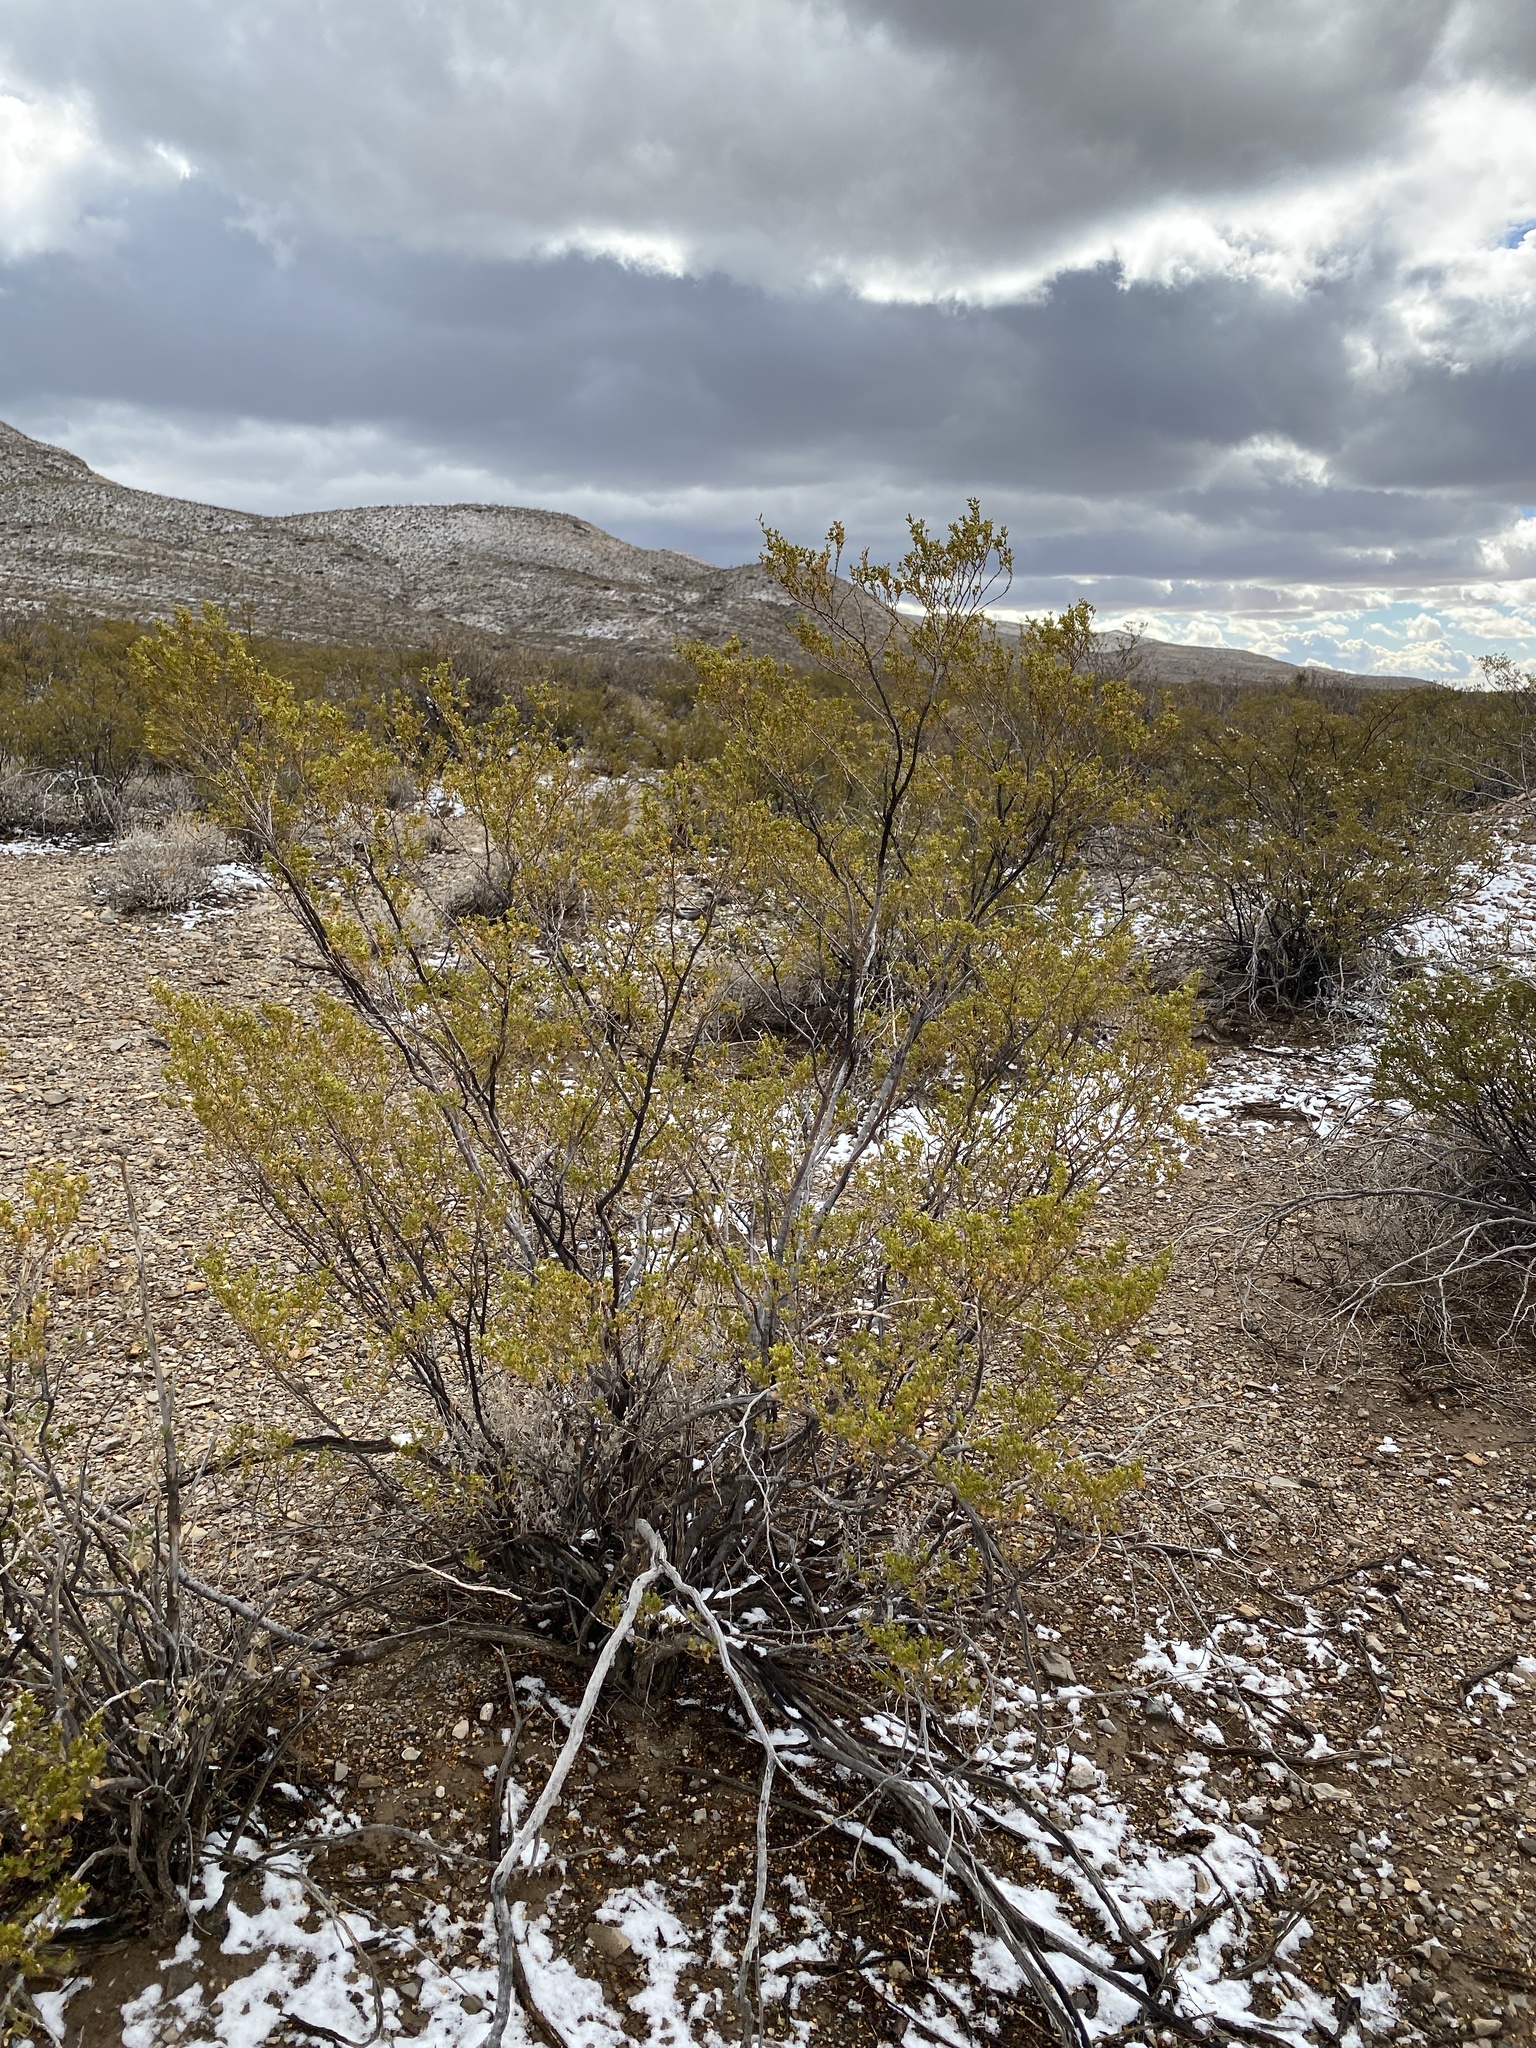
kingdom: Plantae
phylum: Tracheophyta
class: Magnoliopsida
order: Zygophyllales
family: Zygophyllaceae
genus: Larrea
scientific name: Larrea tridentata
